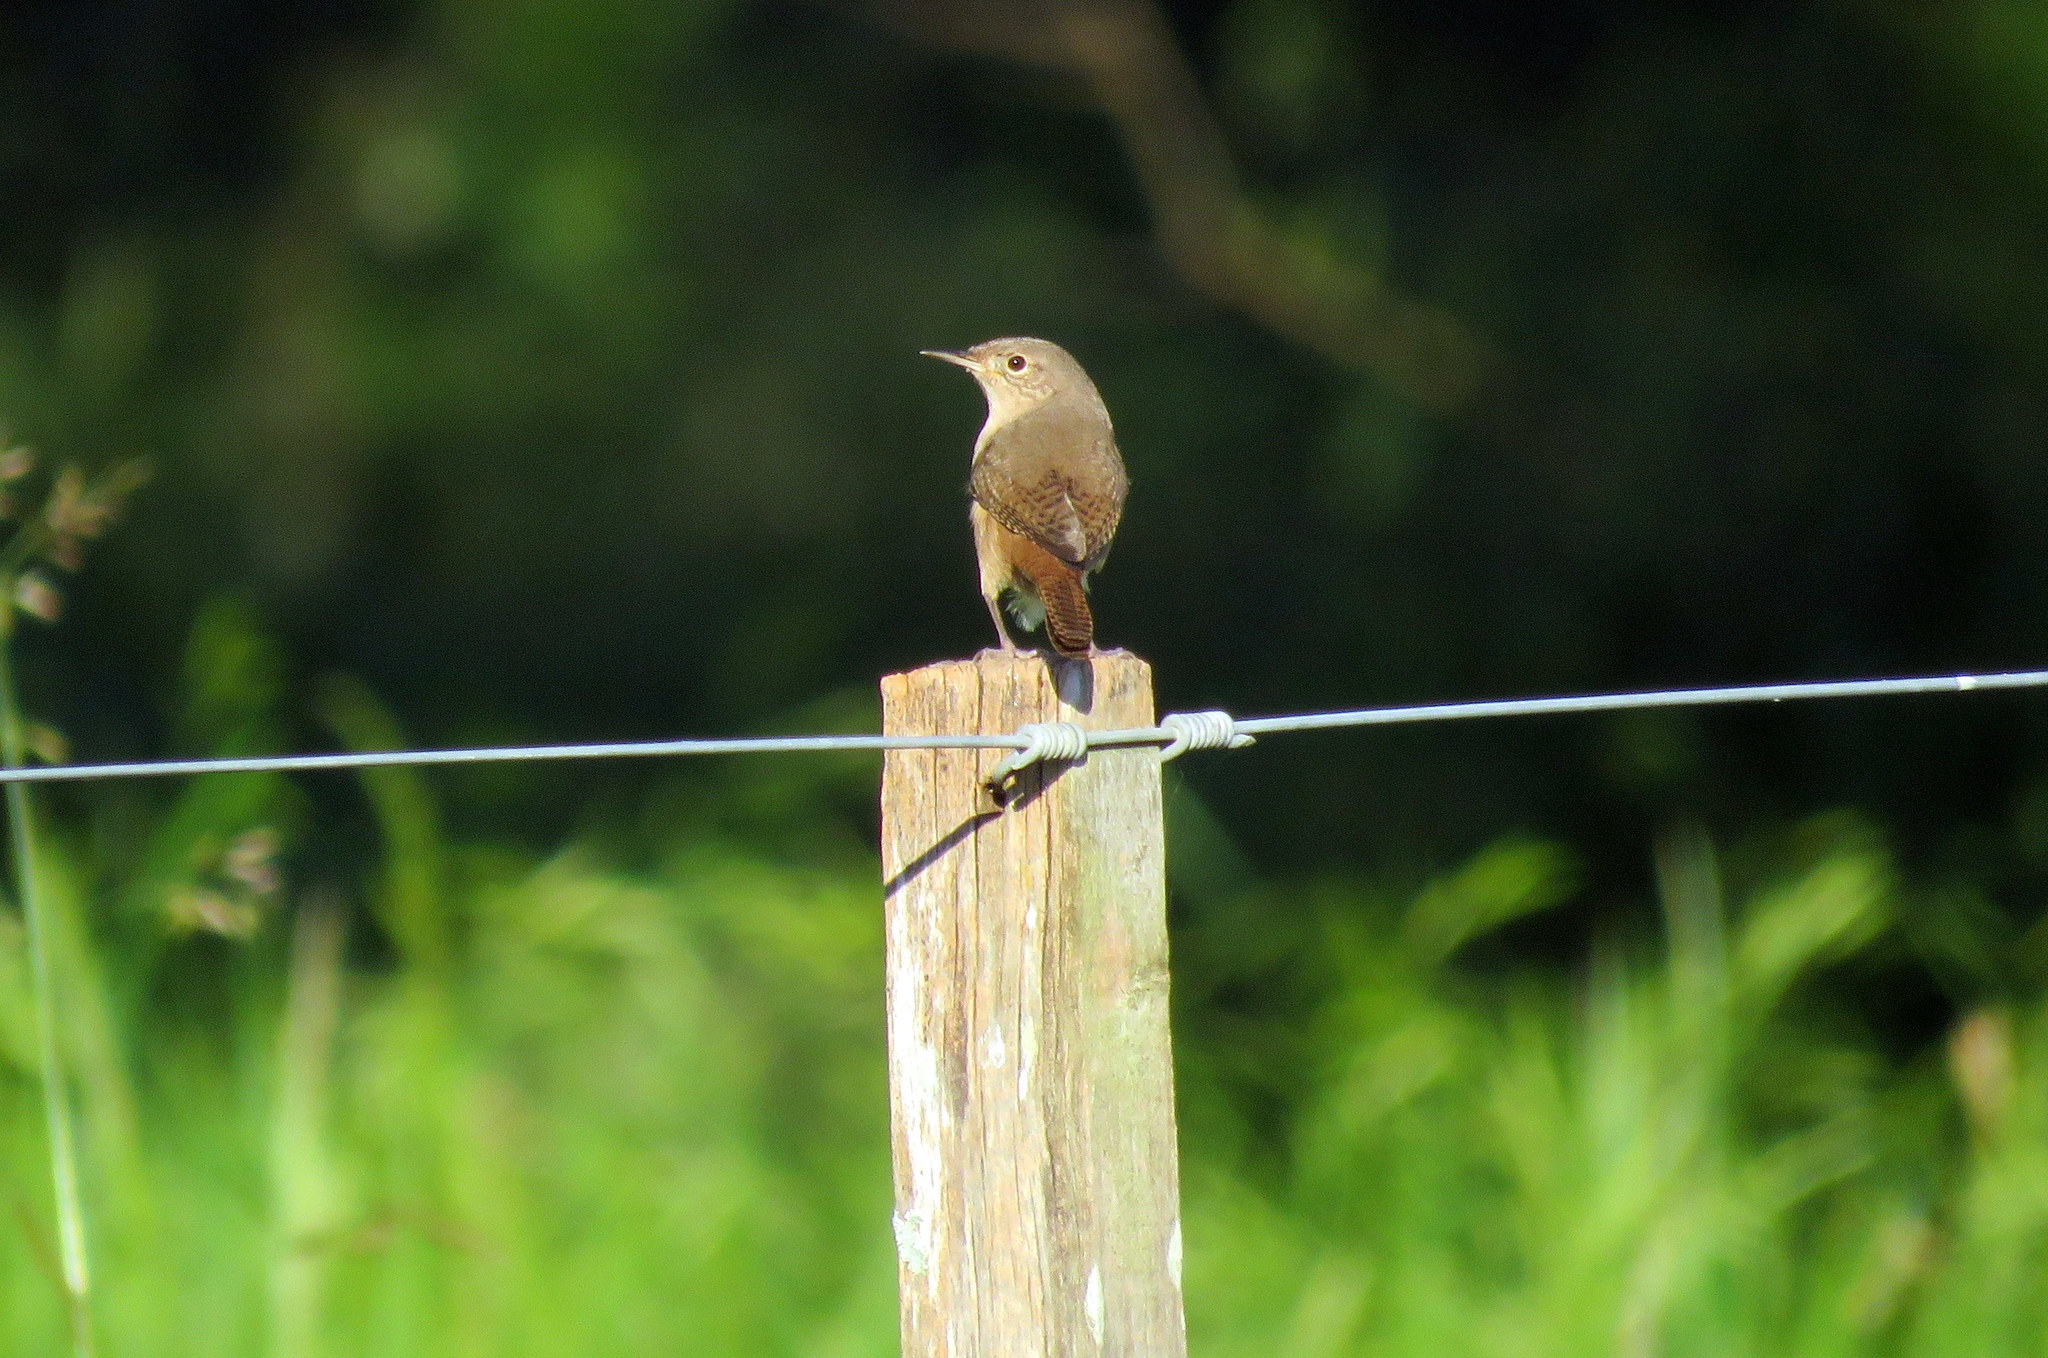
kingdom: Animalia
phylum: Chordata
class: Aves
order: Passeriformes
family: Troglodytidae
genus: Troglodytes
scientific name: Troglodytes aedon
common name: House wren
